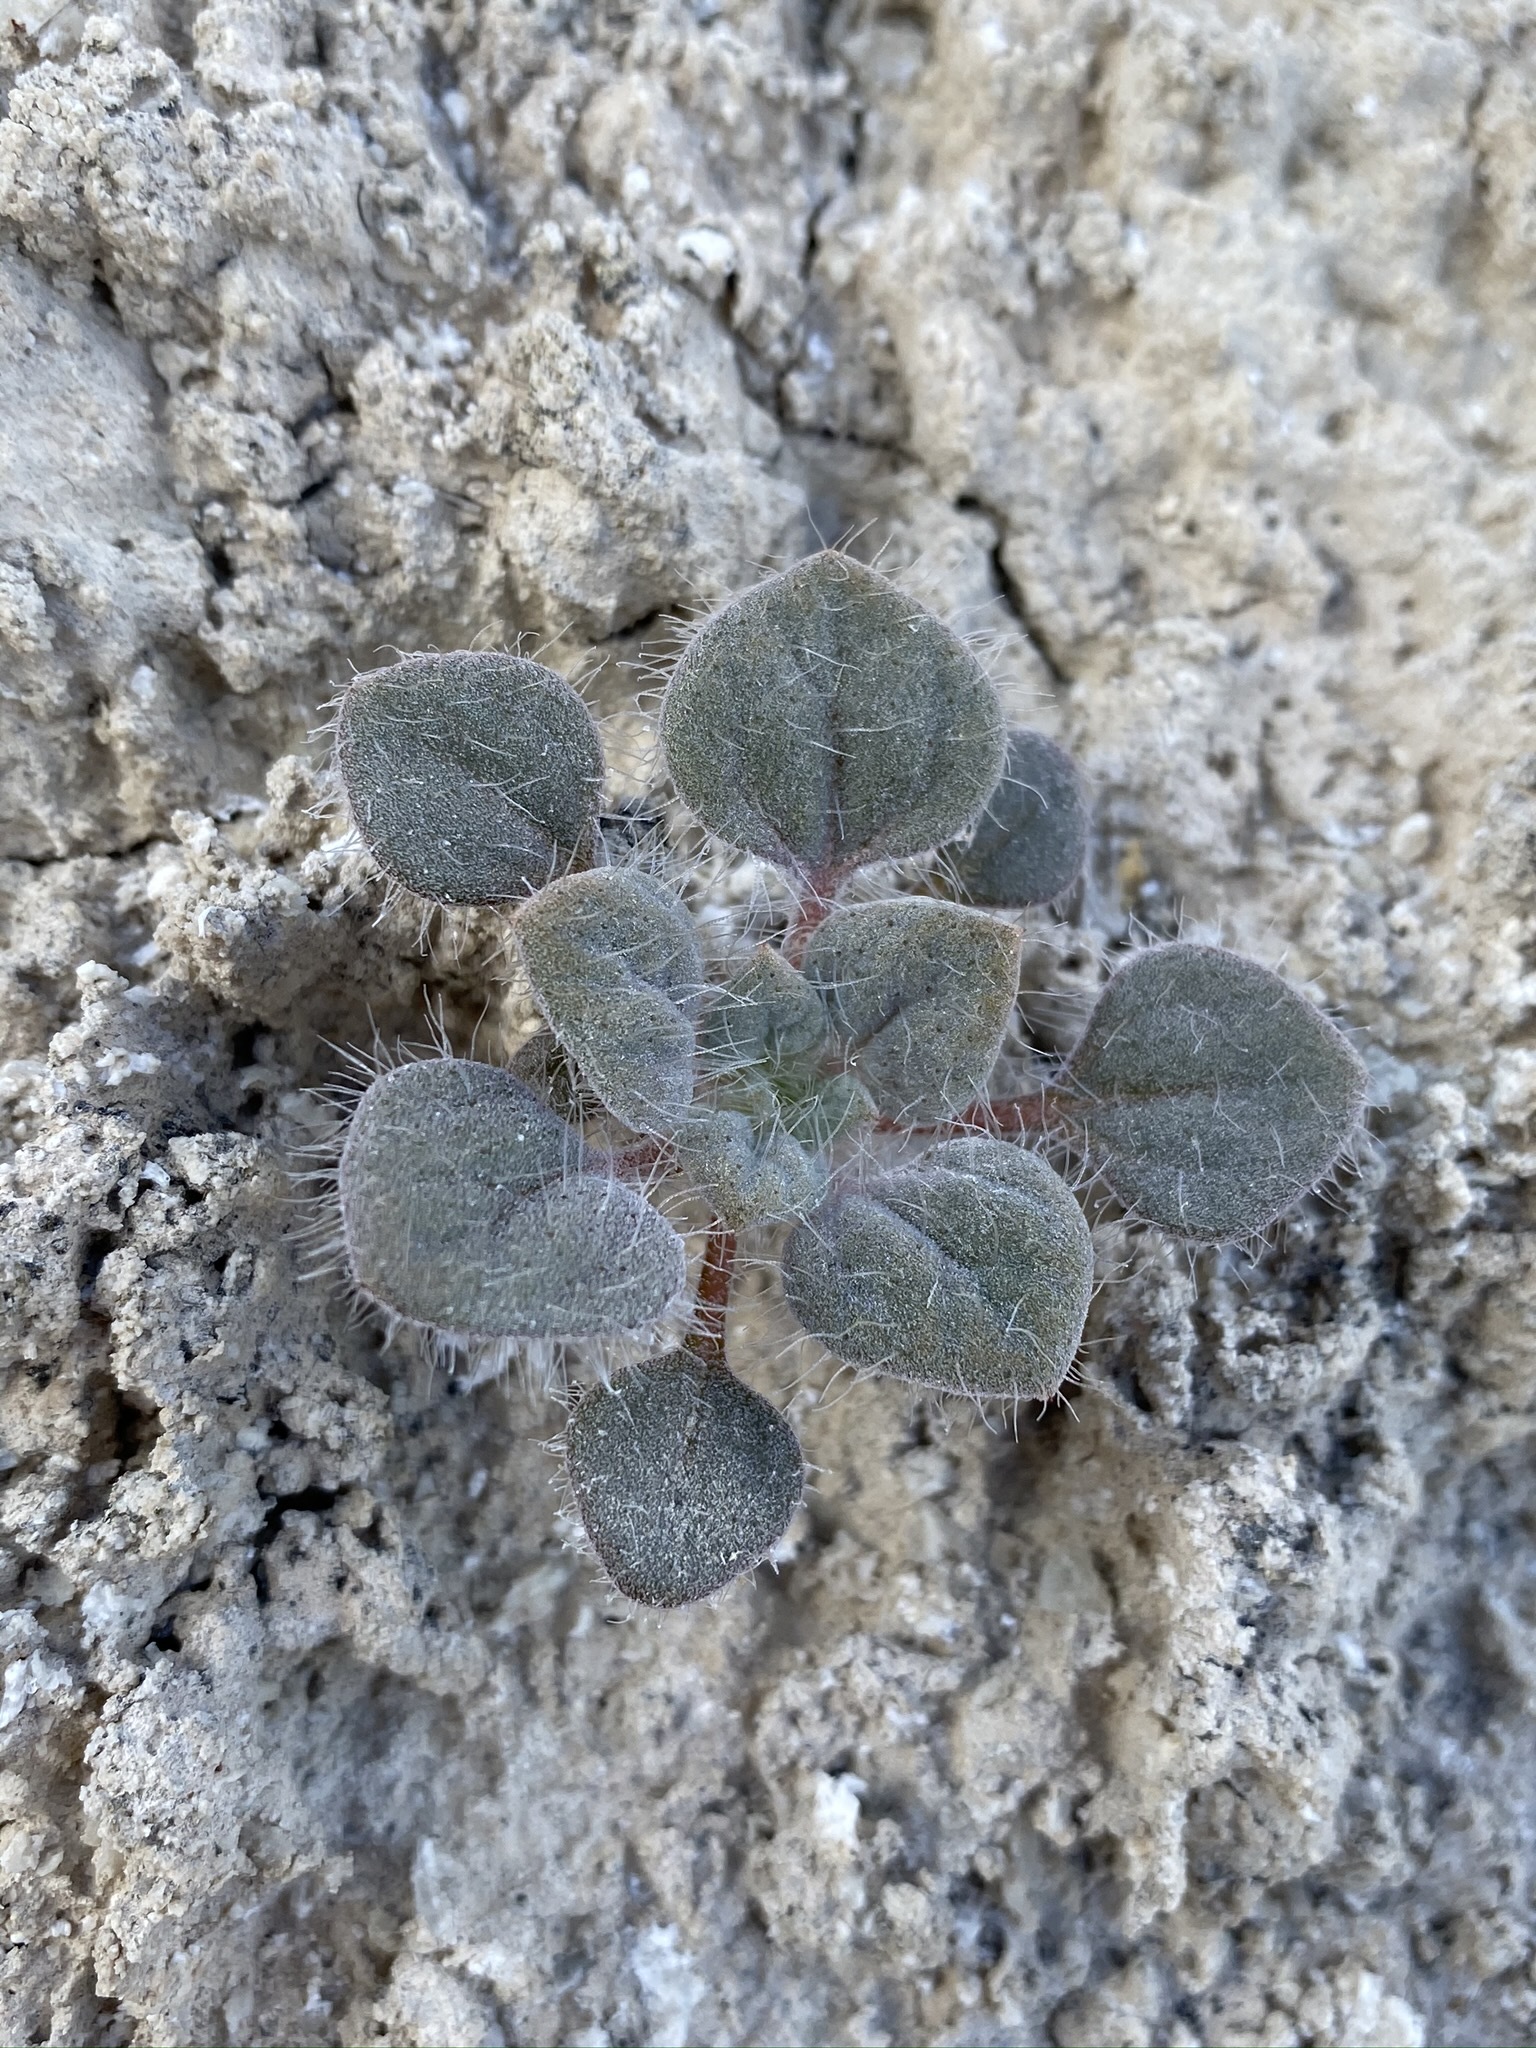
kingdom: Plantae
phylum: Tracheophyta
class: Magnoliopsida
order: Asterales
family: Asteraceae
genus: Psathyrotes
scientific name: Psathyrotes pilifera
